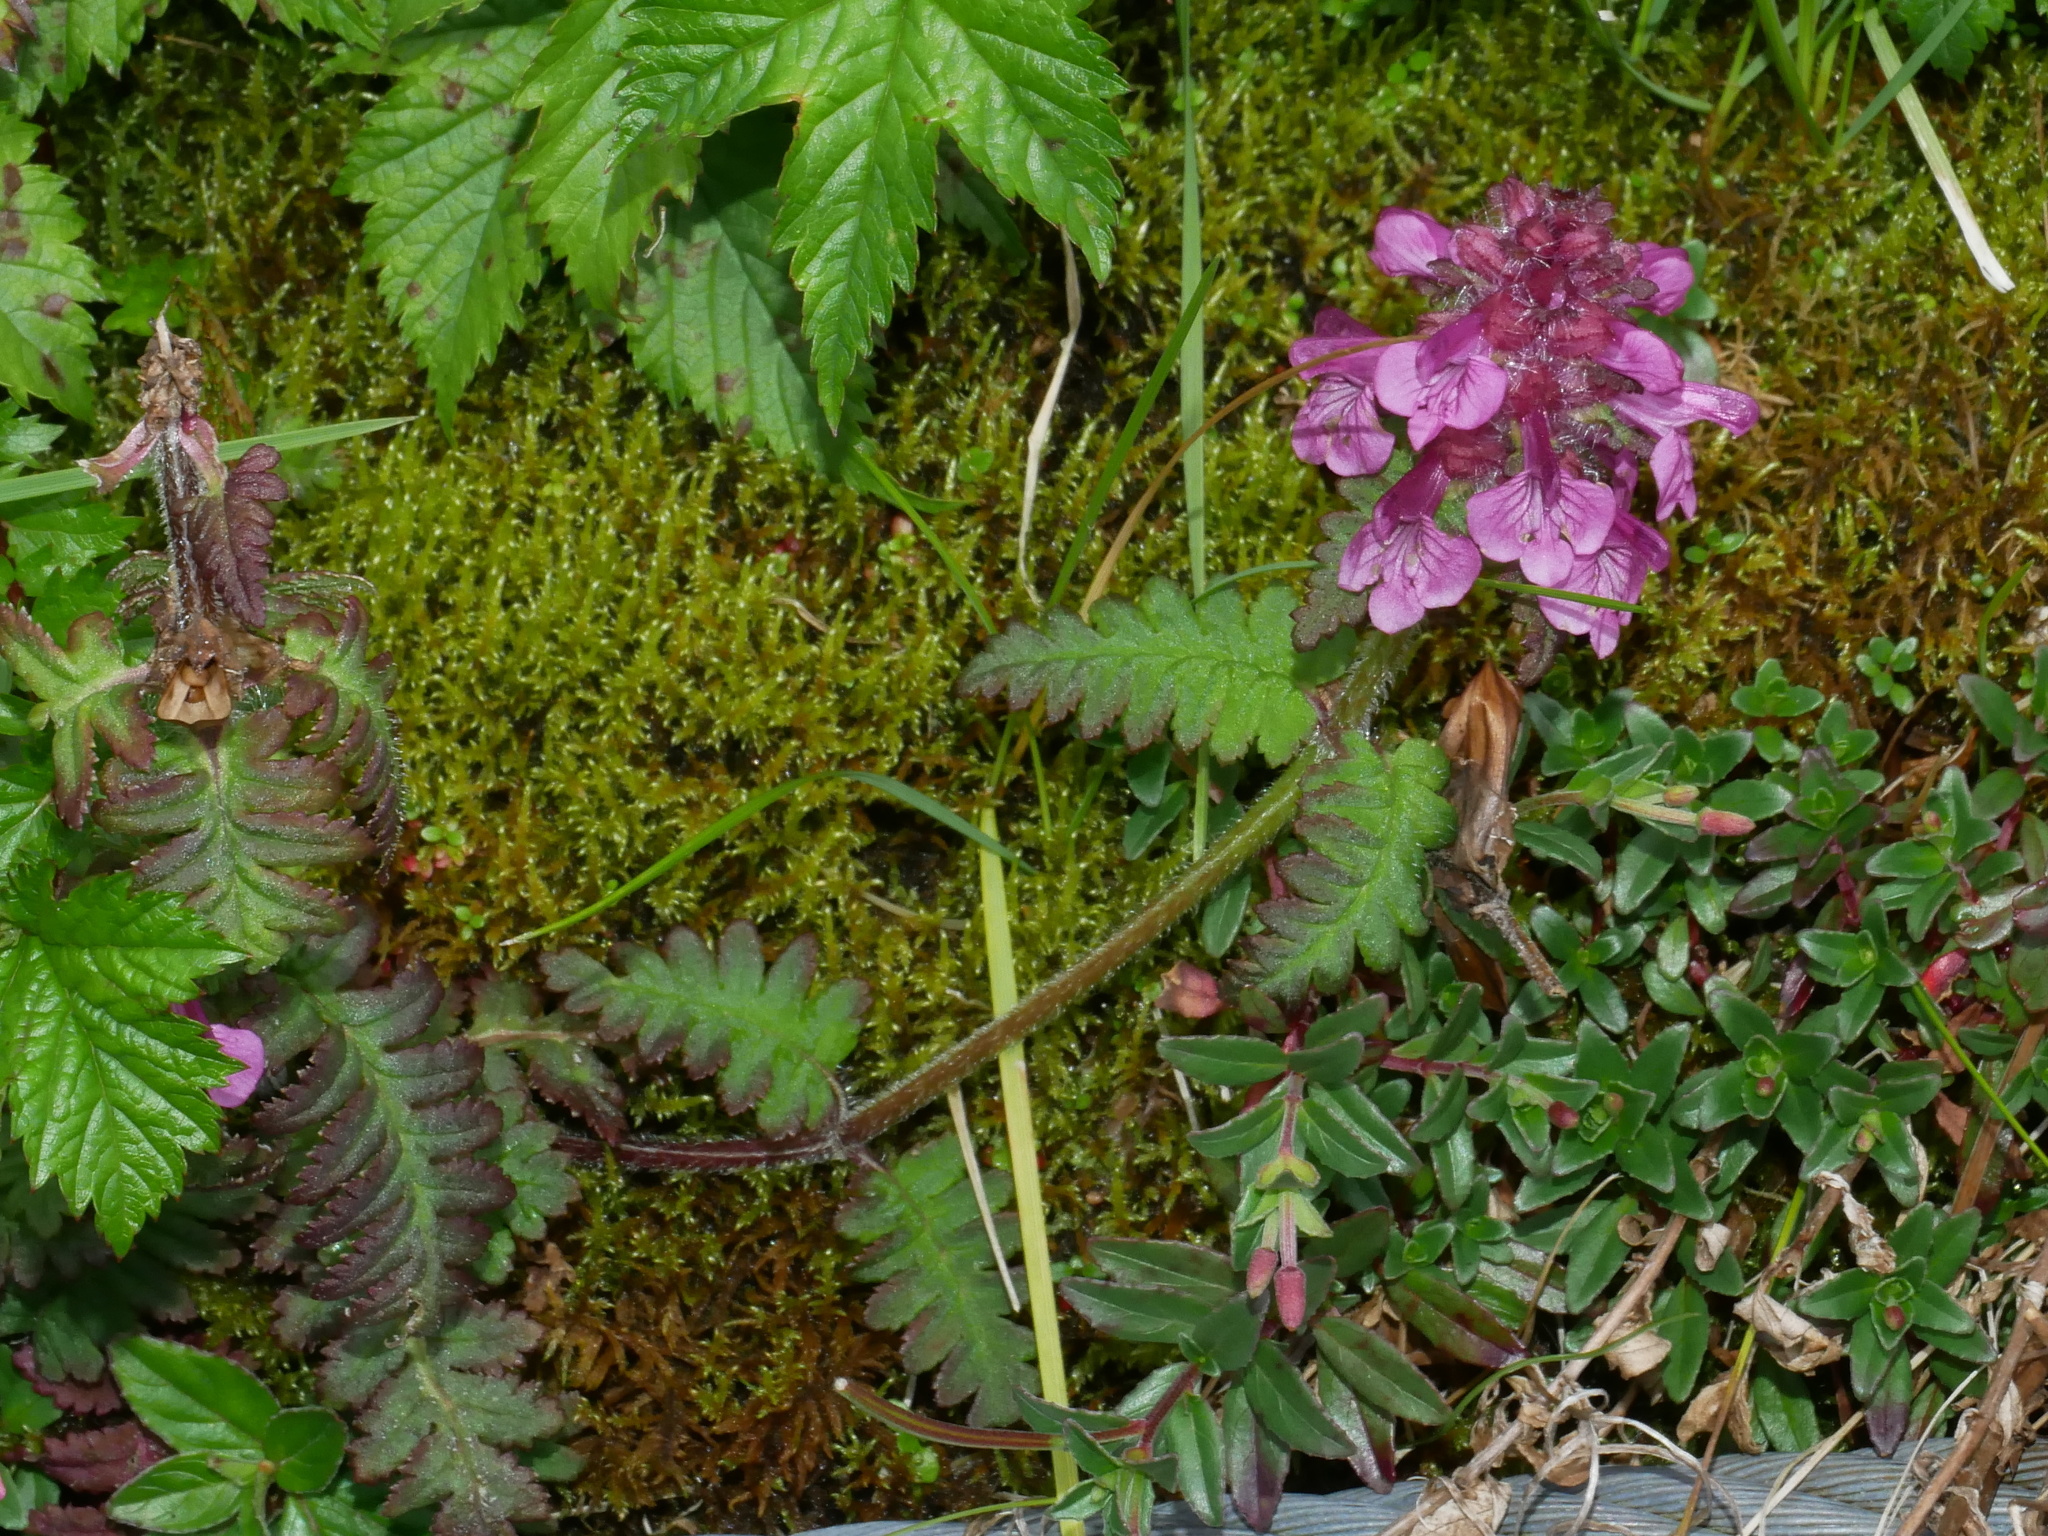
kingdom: Plantae
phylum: Tracheophyta
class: Magnoliopsida
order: Lamiales
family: Orobanchaceae
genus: Pedicularis
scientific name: Pedicularis refracta
